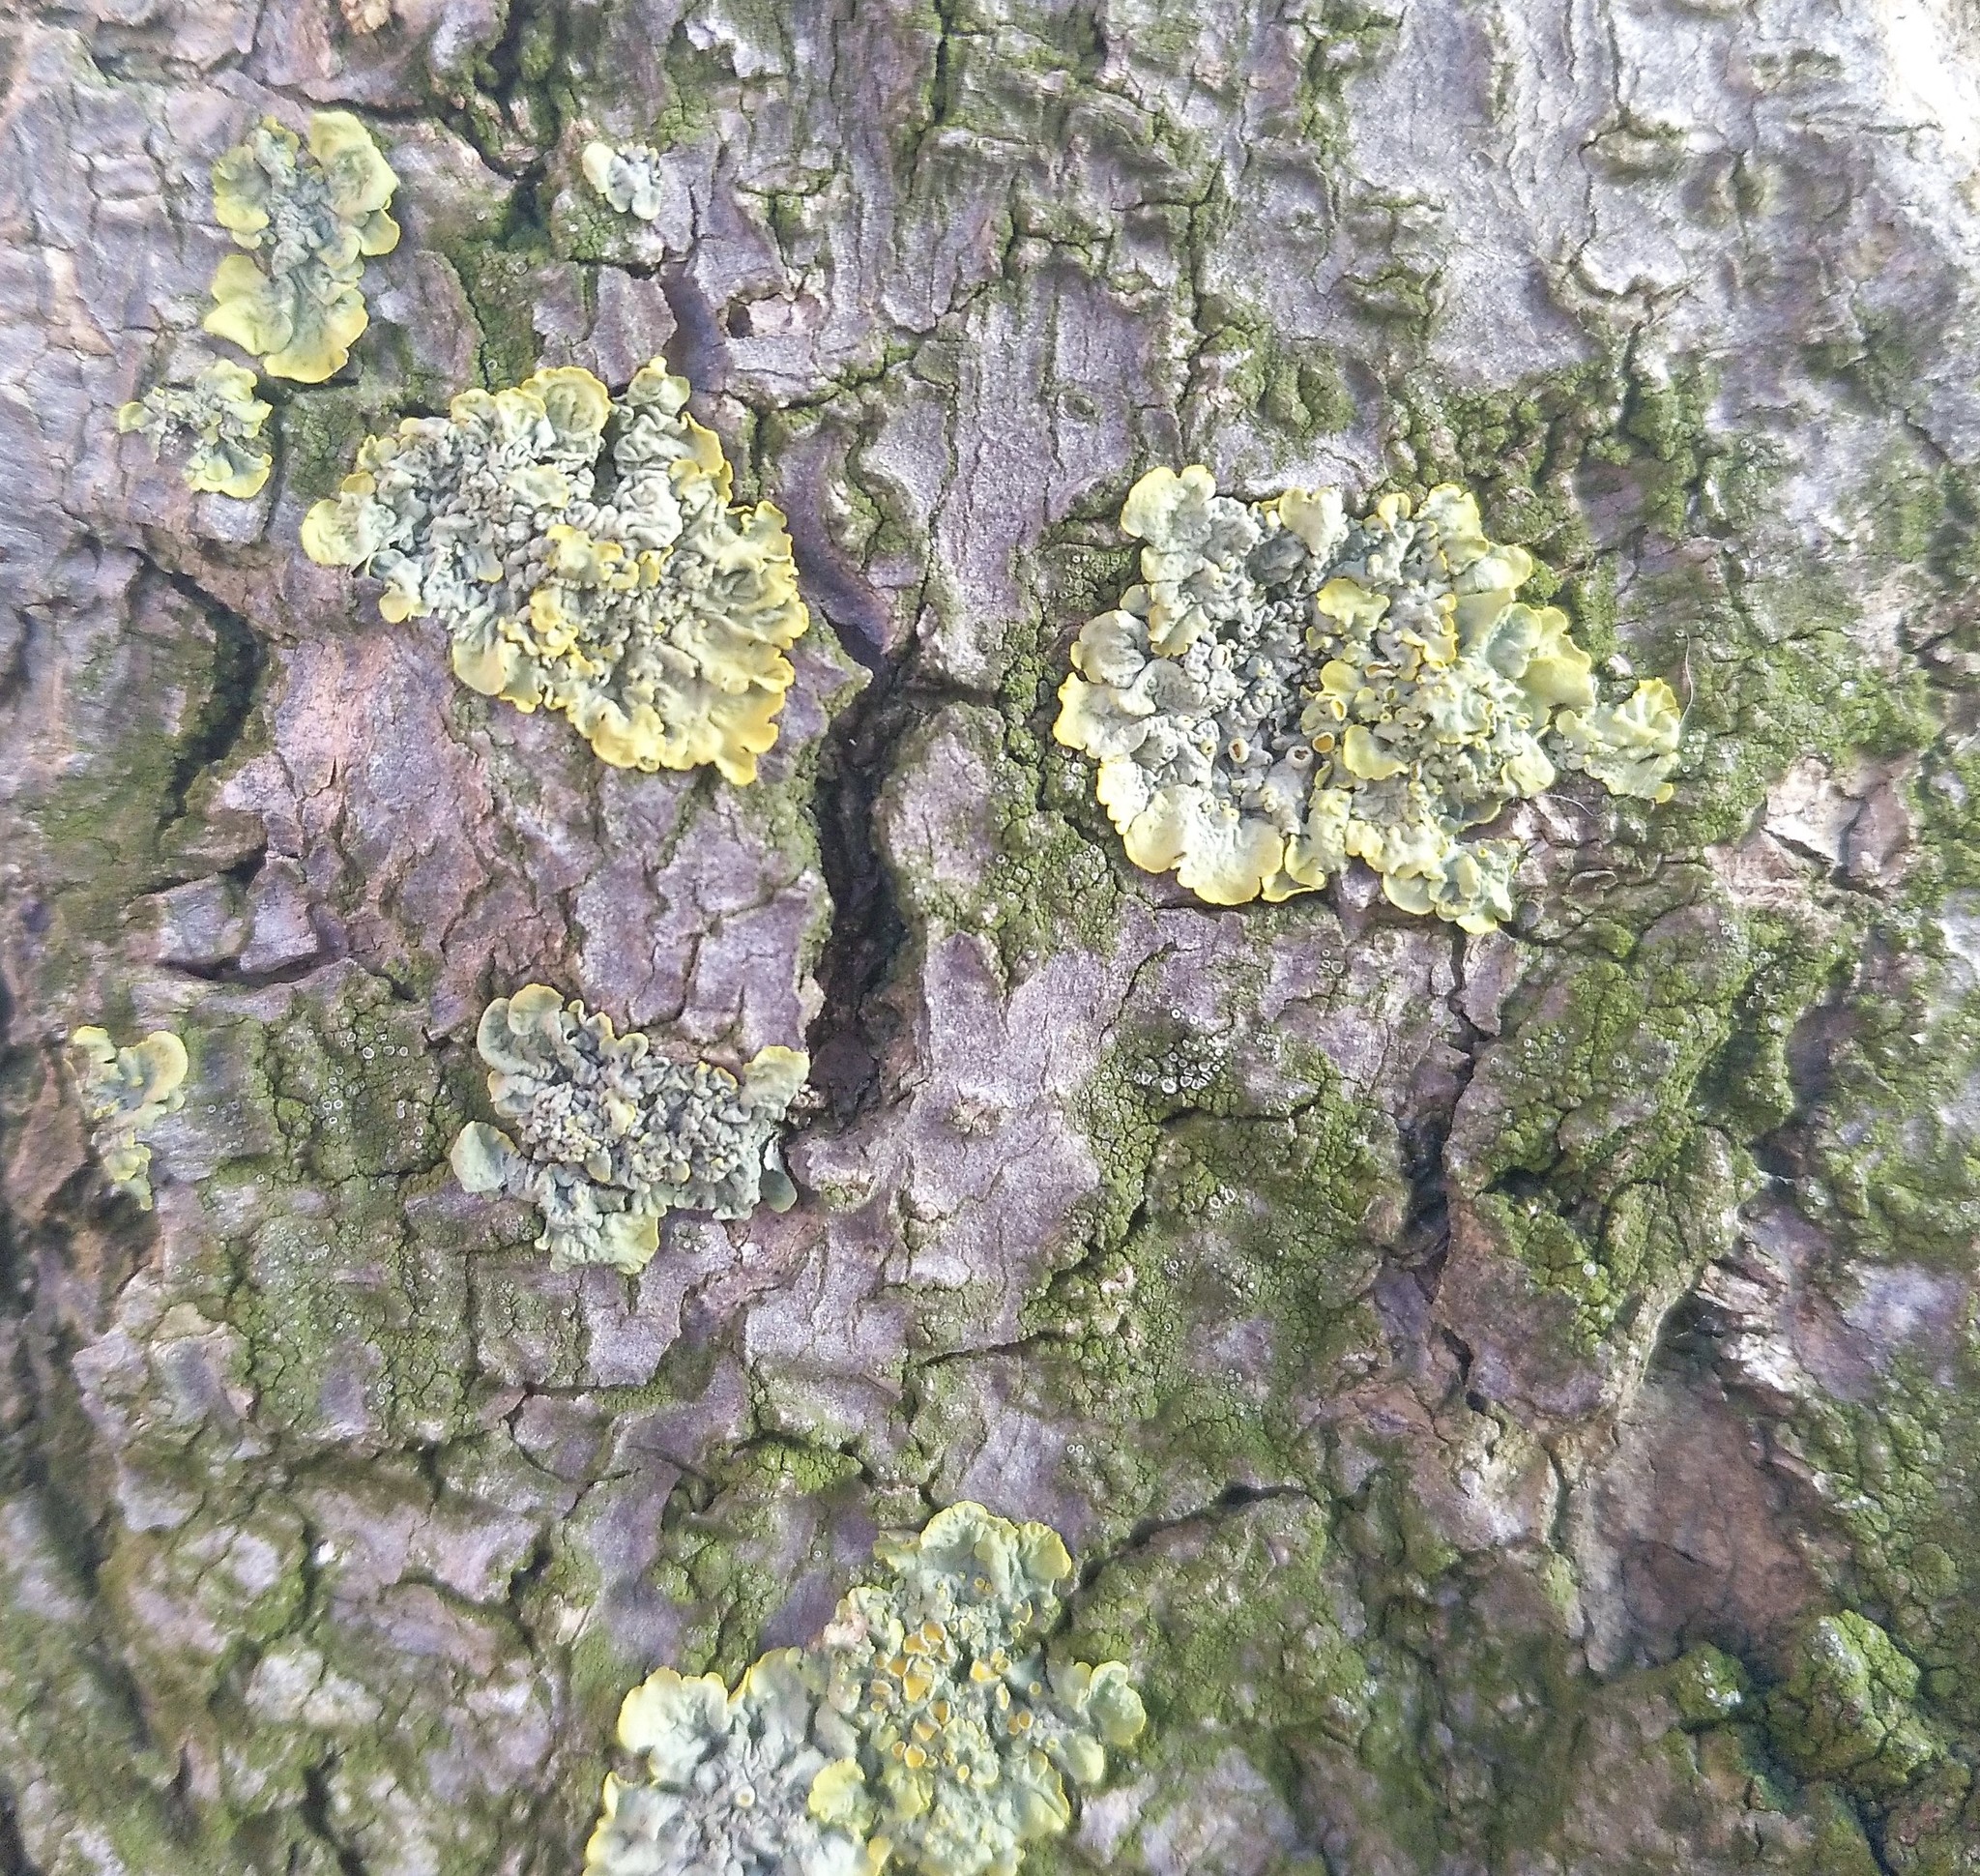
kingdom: Fungi
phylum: Ascomycota
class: Lecanoromycetes
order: Teloschistales
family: Teloschistaceae
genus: Xanthoria
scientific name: Xanthoria parietina
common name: Common orange lichen
